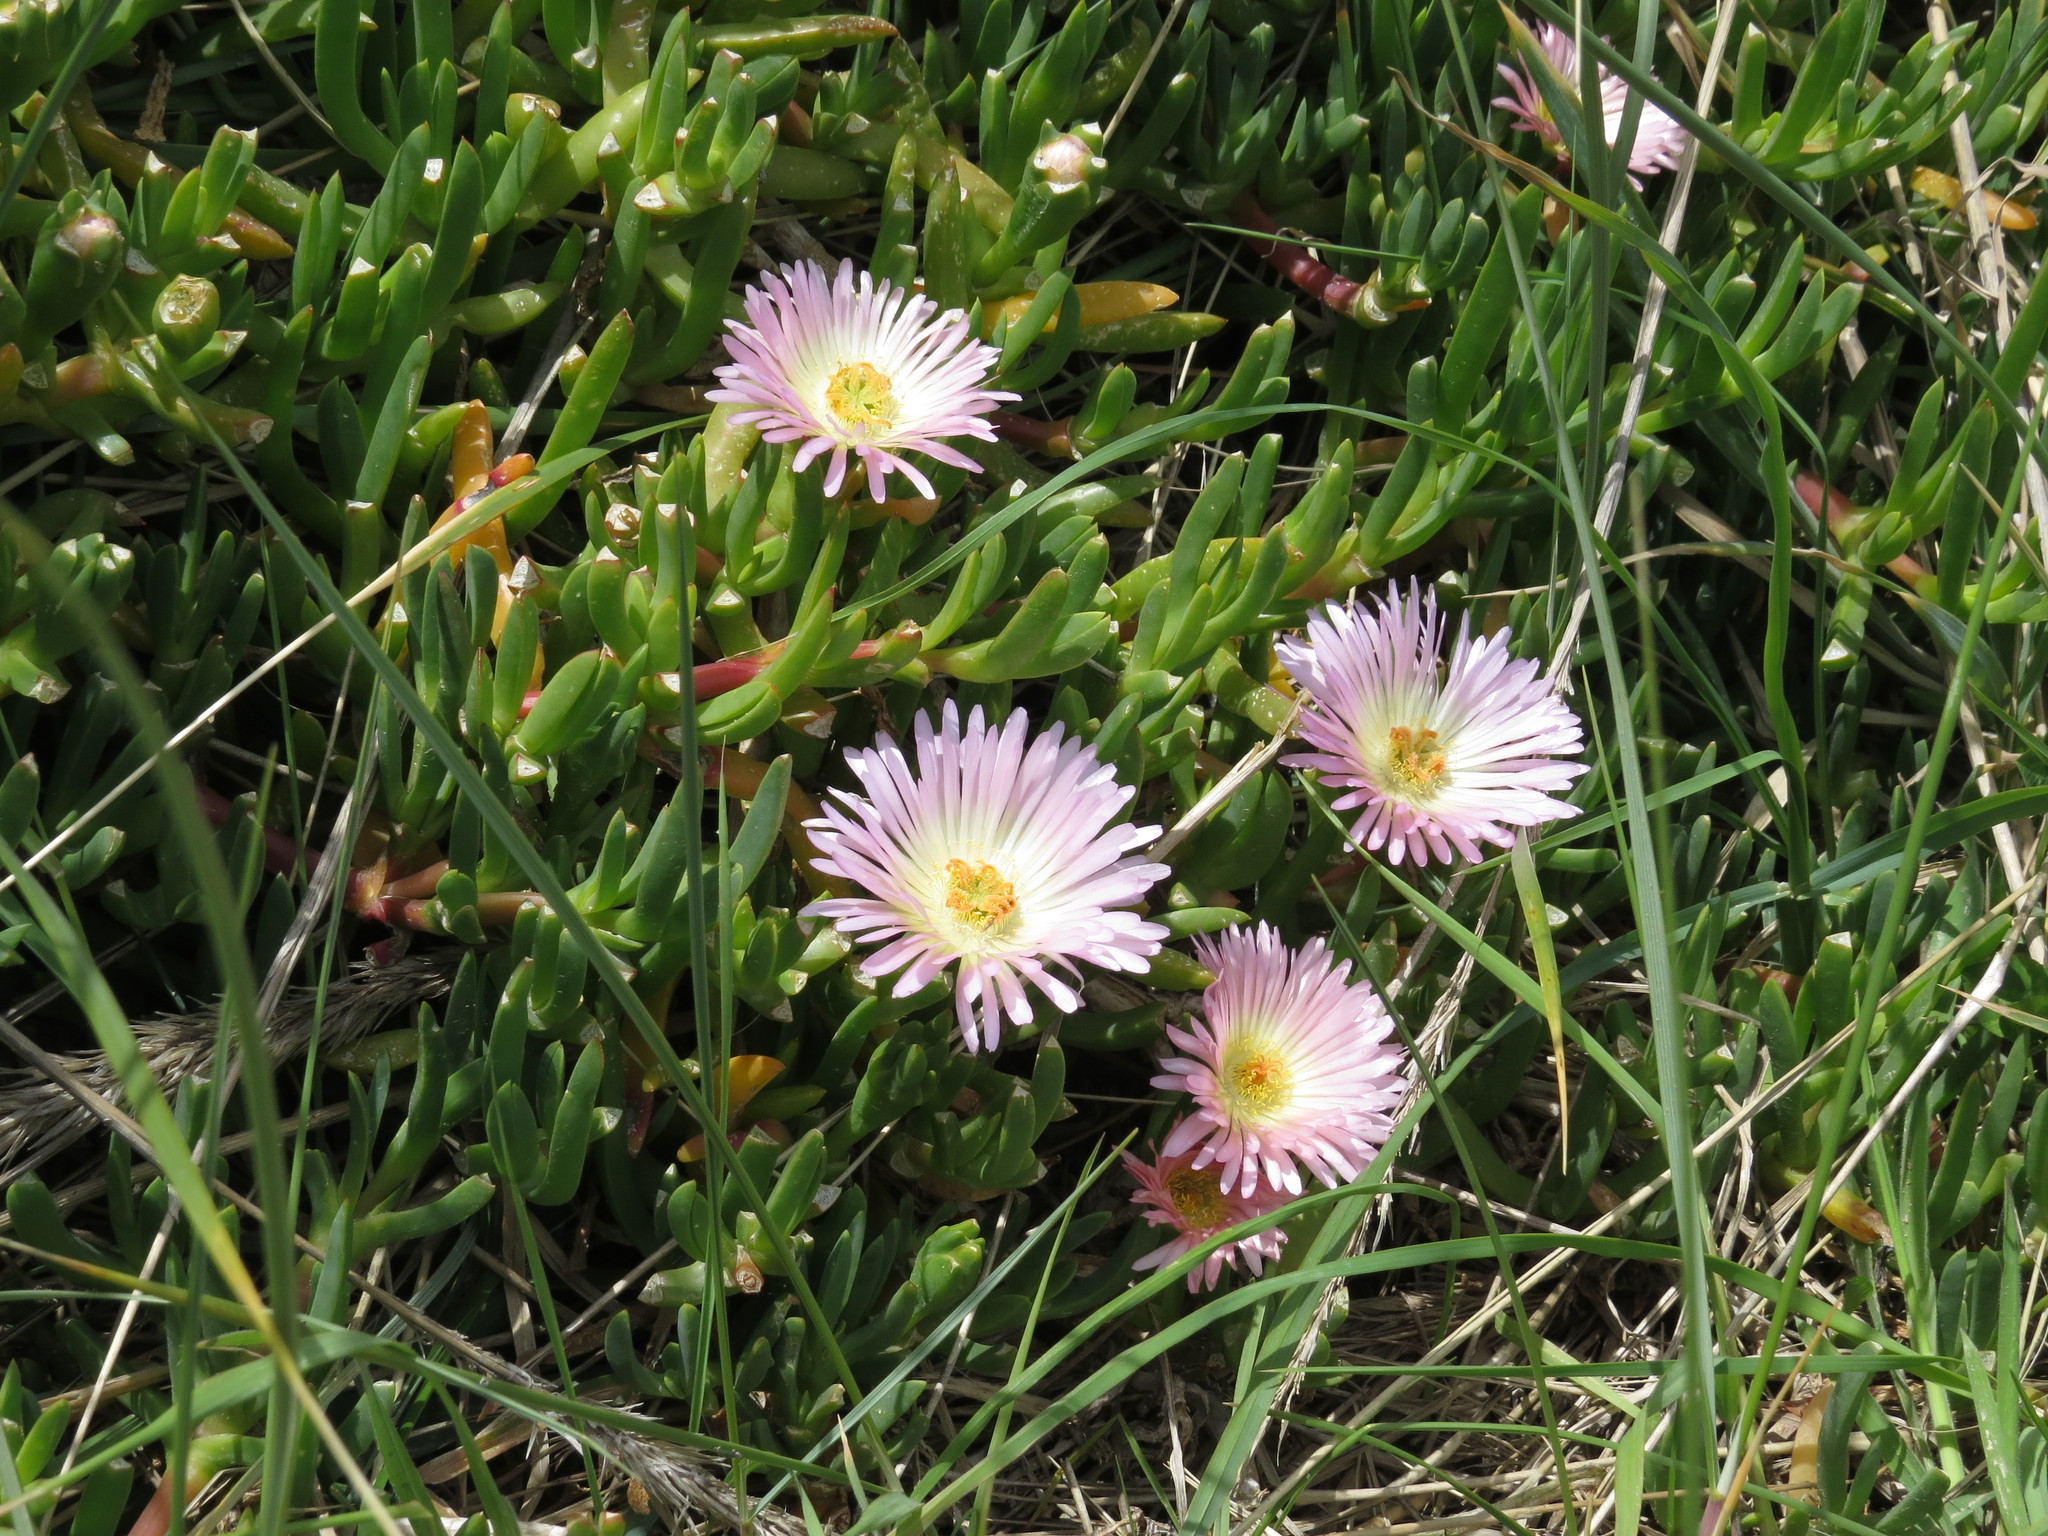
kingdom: Plantae
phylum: Tracheophyta
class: Magnoliopsida
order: Caryophyllales
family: Aizoaceae
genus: Disphyma
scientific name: Disphyma australe
